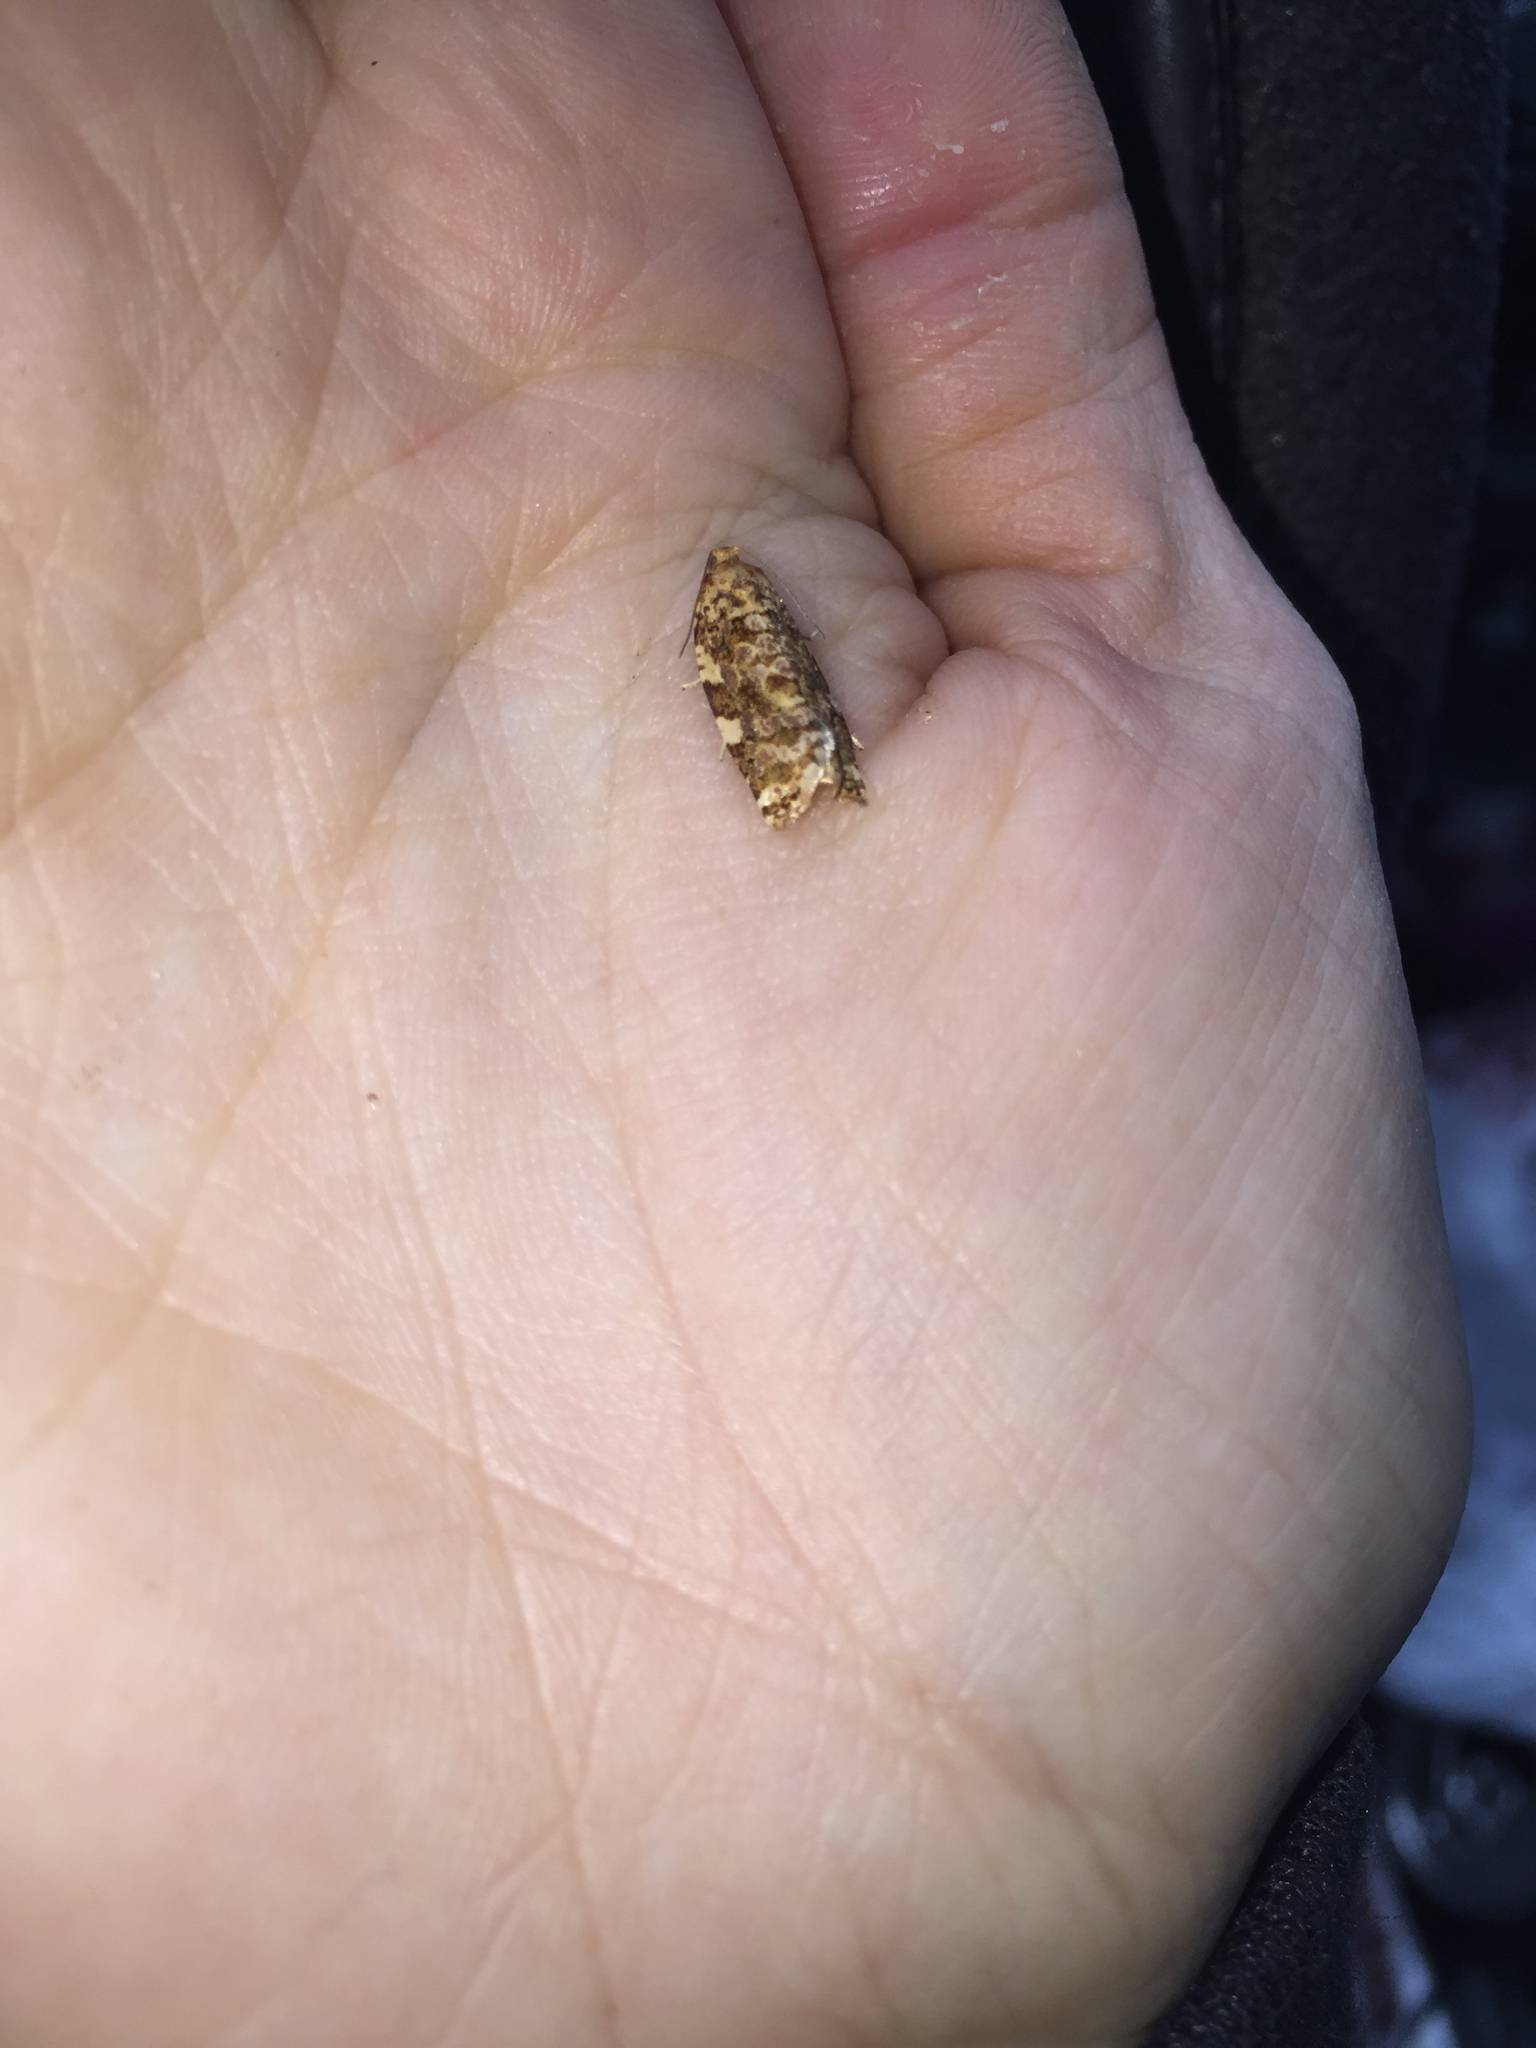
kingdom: Animalia
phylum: Arthropoda
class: Insecta
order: Lepidoptera
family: Tortricidae
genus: Archips
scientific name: Archips argyrospila
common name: Fruit-tree leafroller moth
